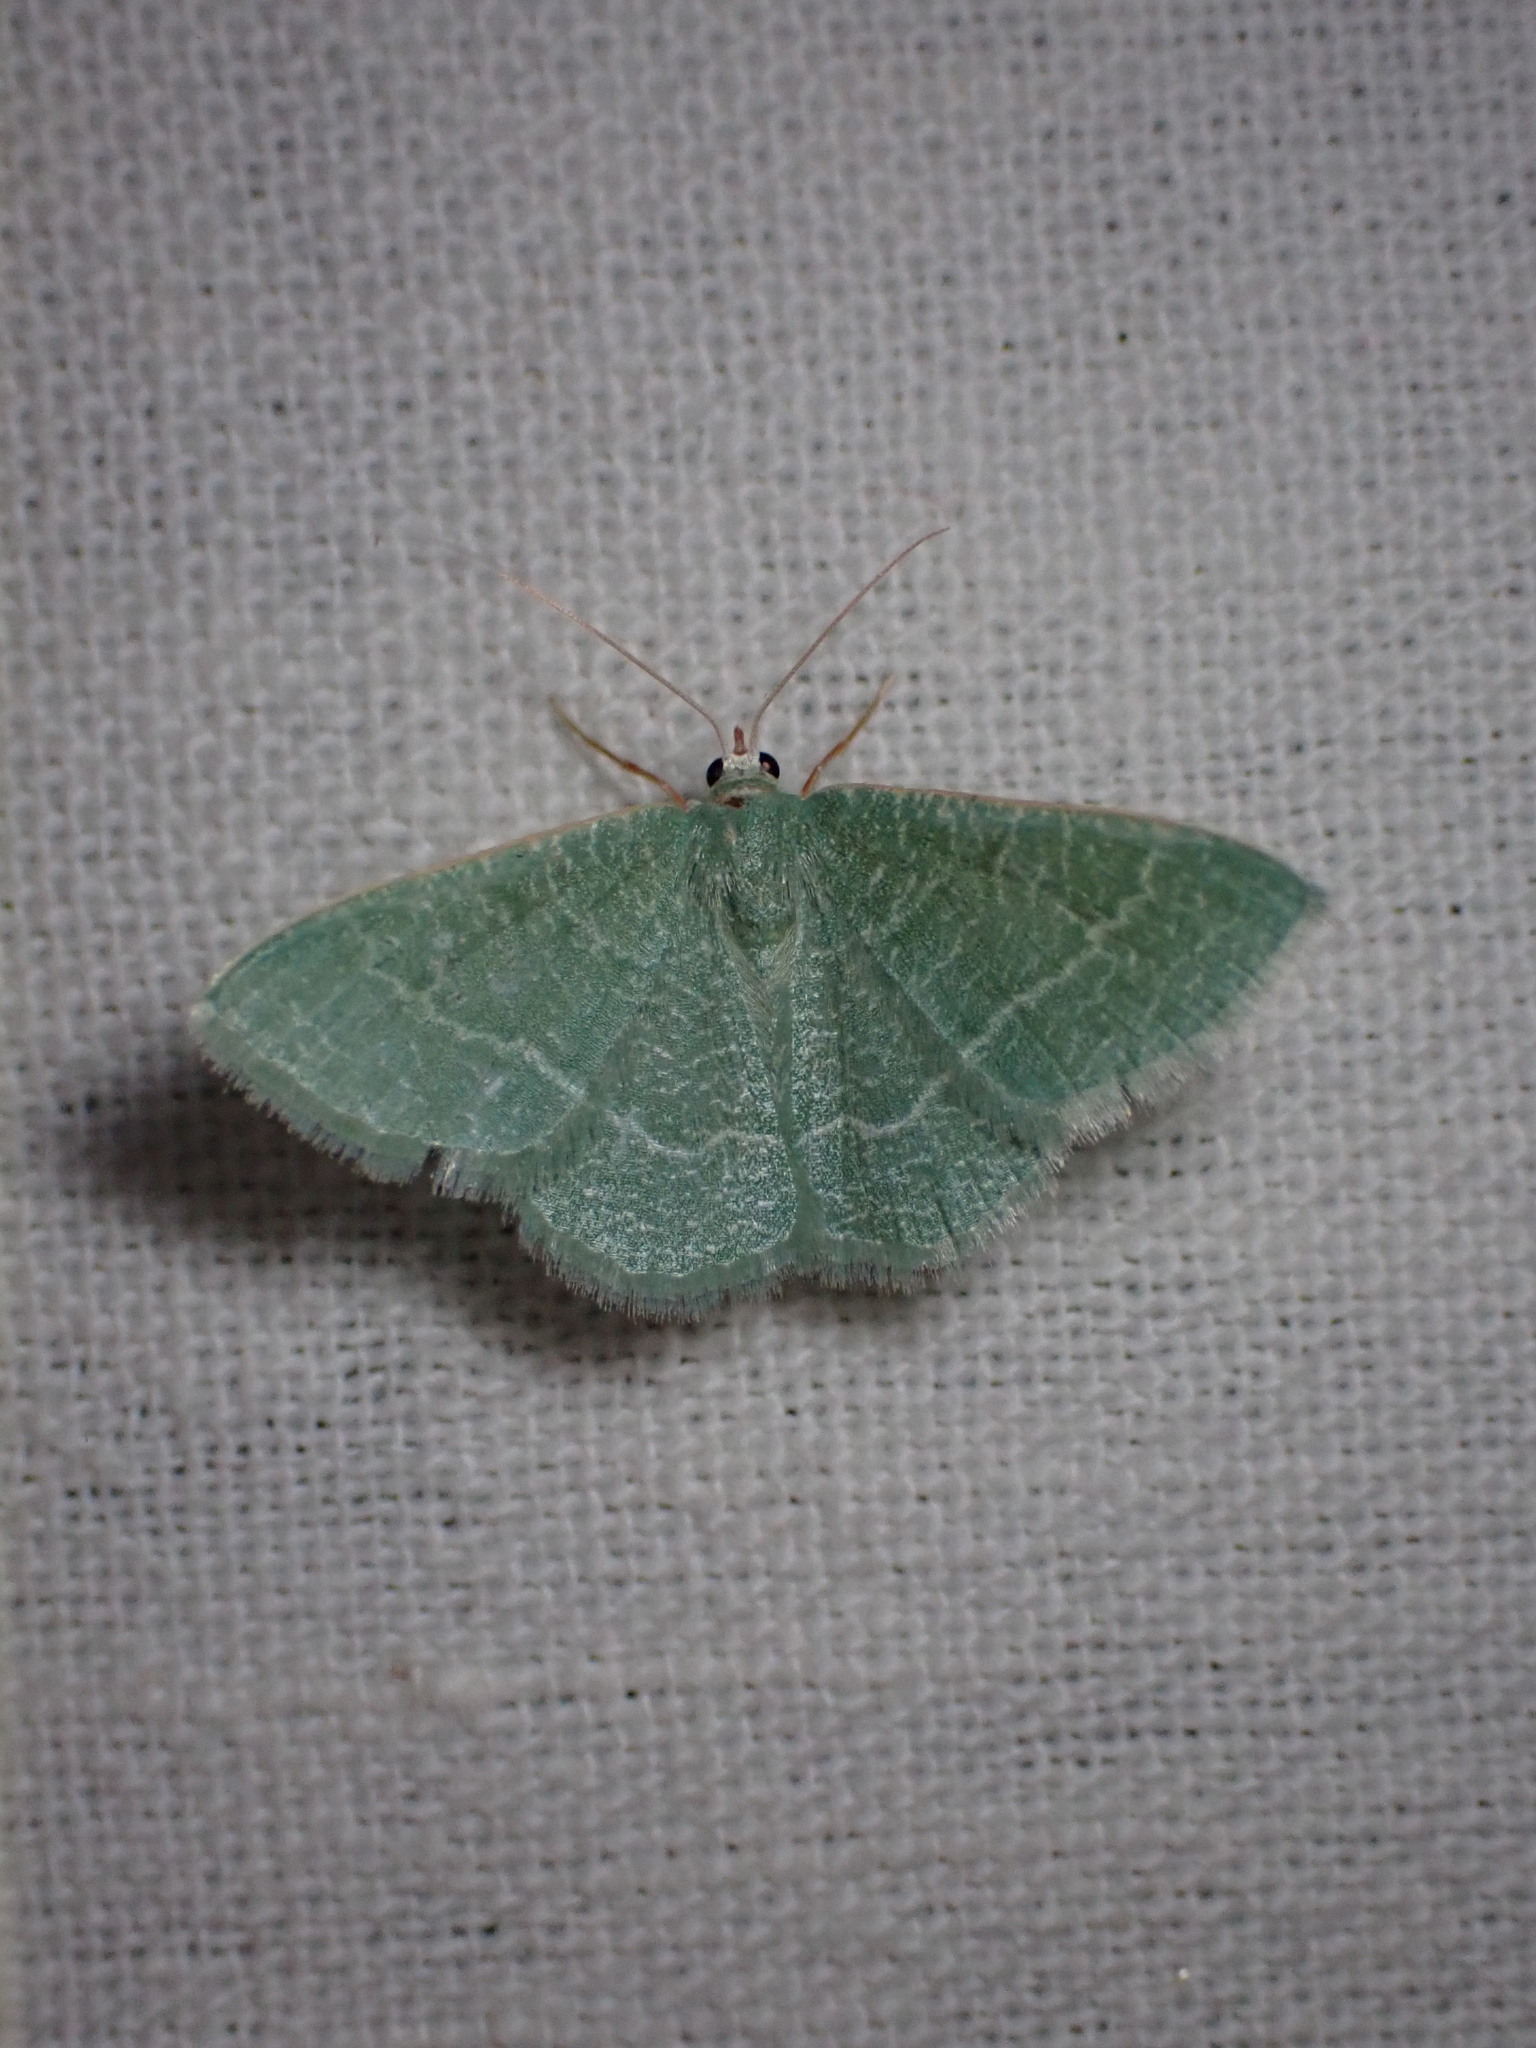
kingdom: Animalia
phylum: Arthropoda
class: Insecta
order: Lepidoptera
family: Geometridae
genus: Chlorissa
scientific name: Chlorissa etruscaria
